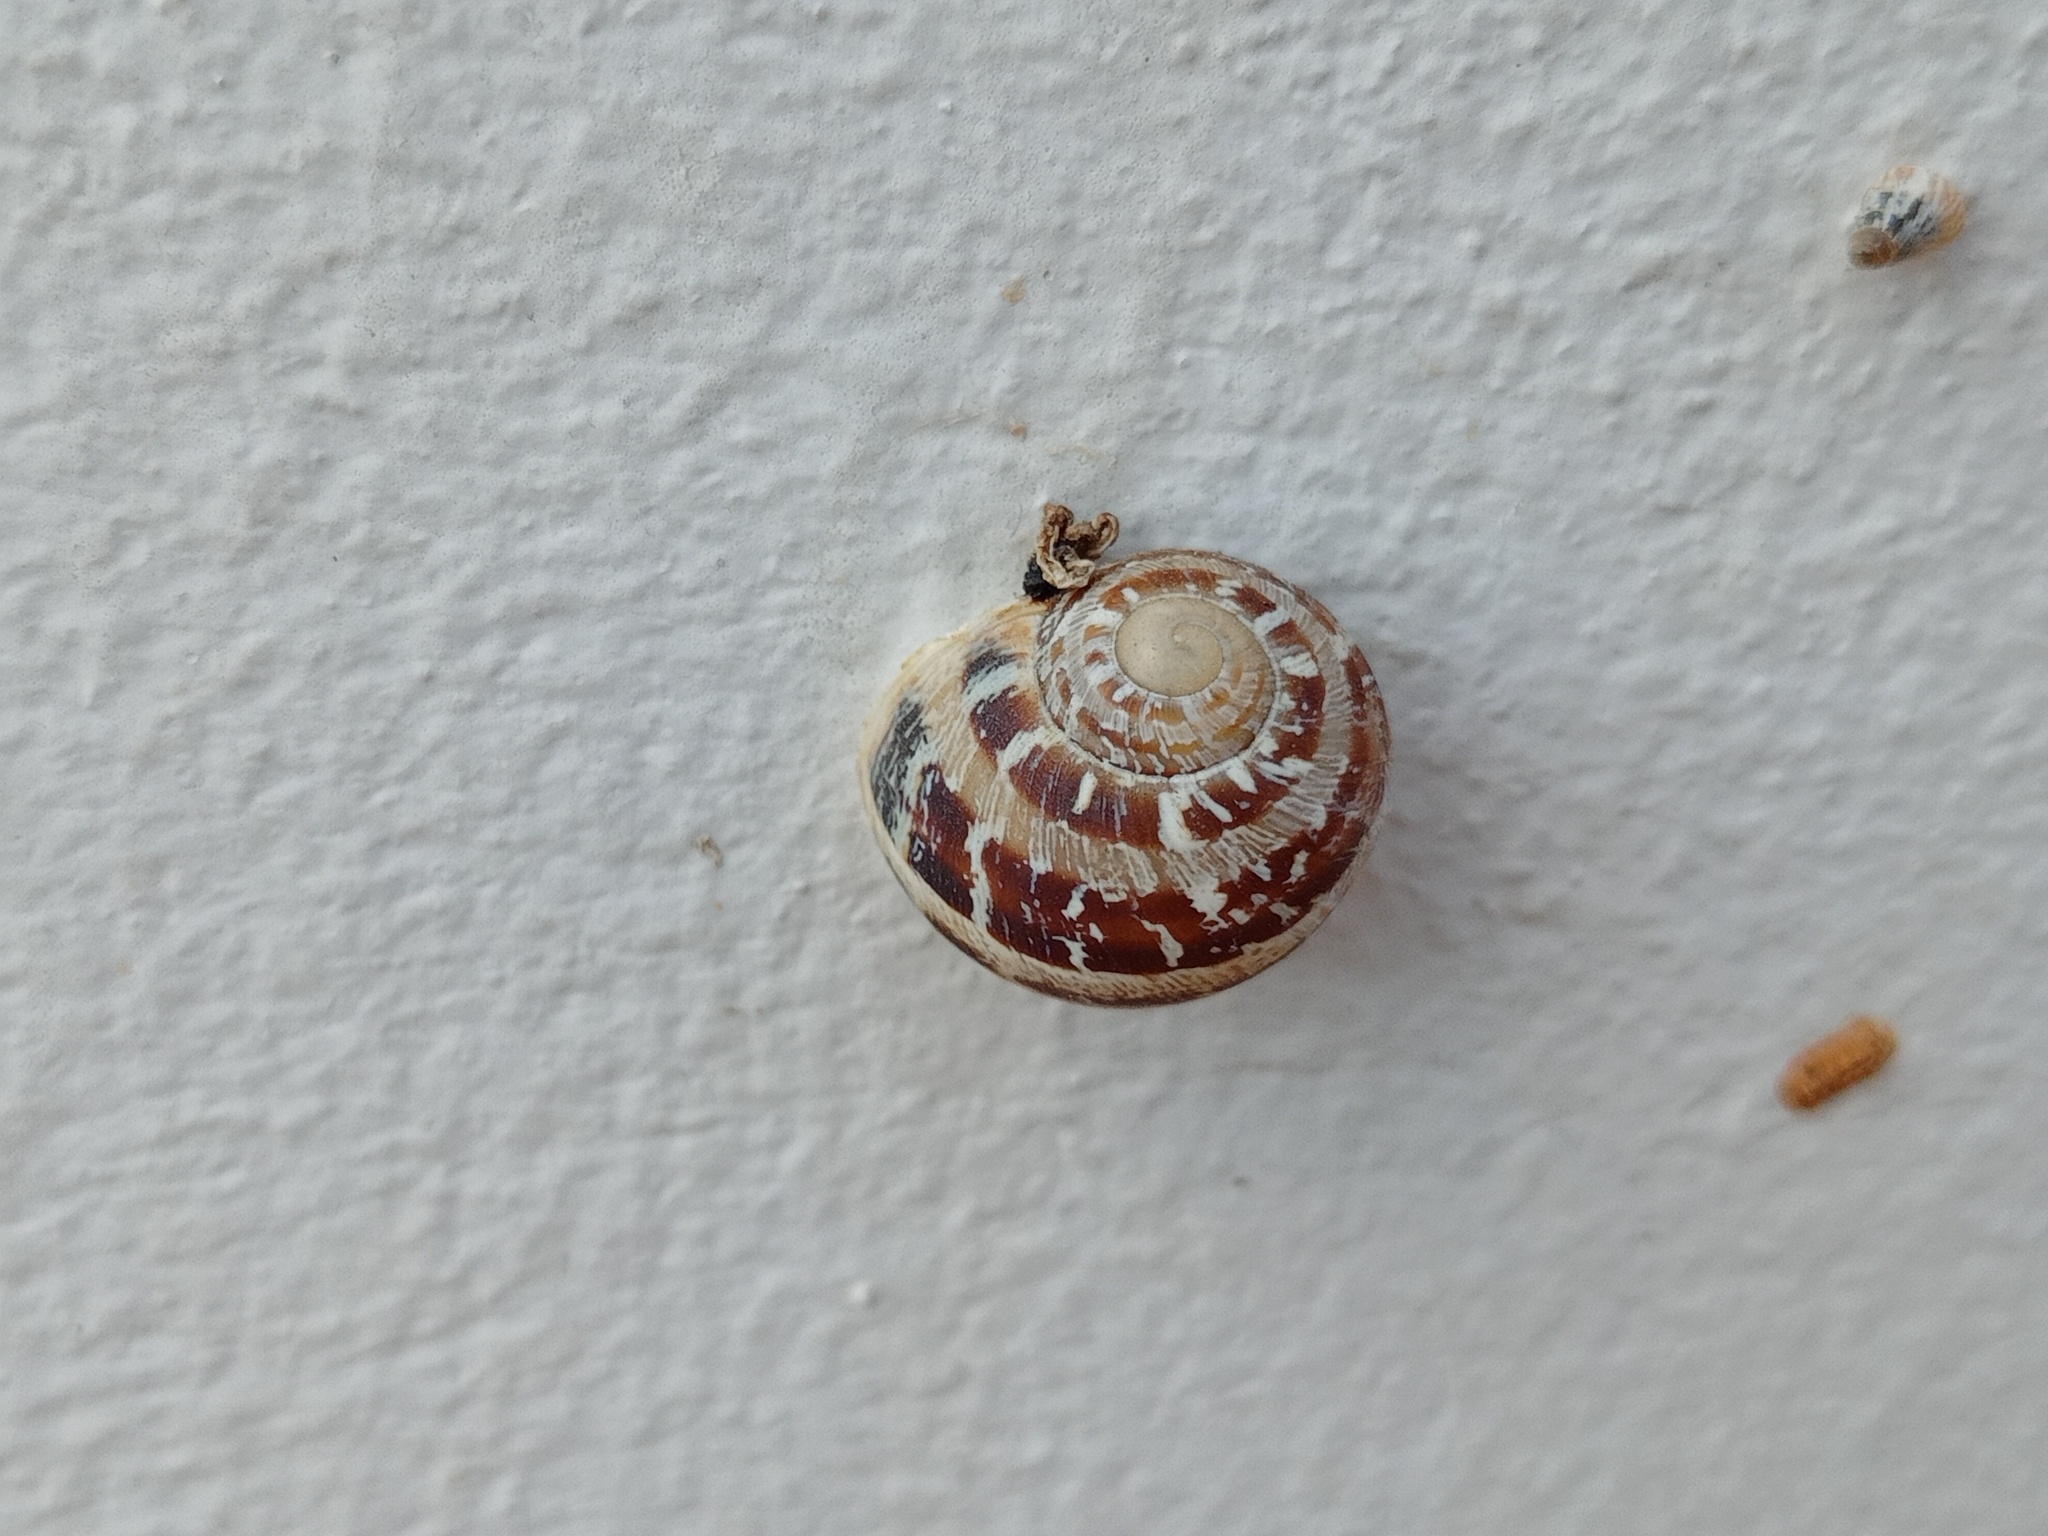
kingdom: Animalia
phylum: Mollusca
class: Gastropoda
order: Stylommatophora
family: Helicidae
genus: Cornu
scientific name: Cornu aspersum
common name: Brown garden snail
